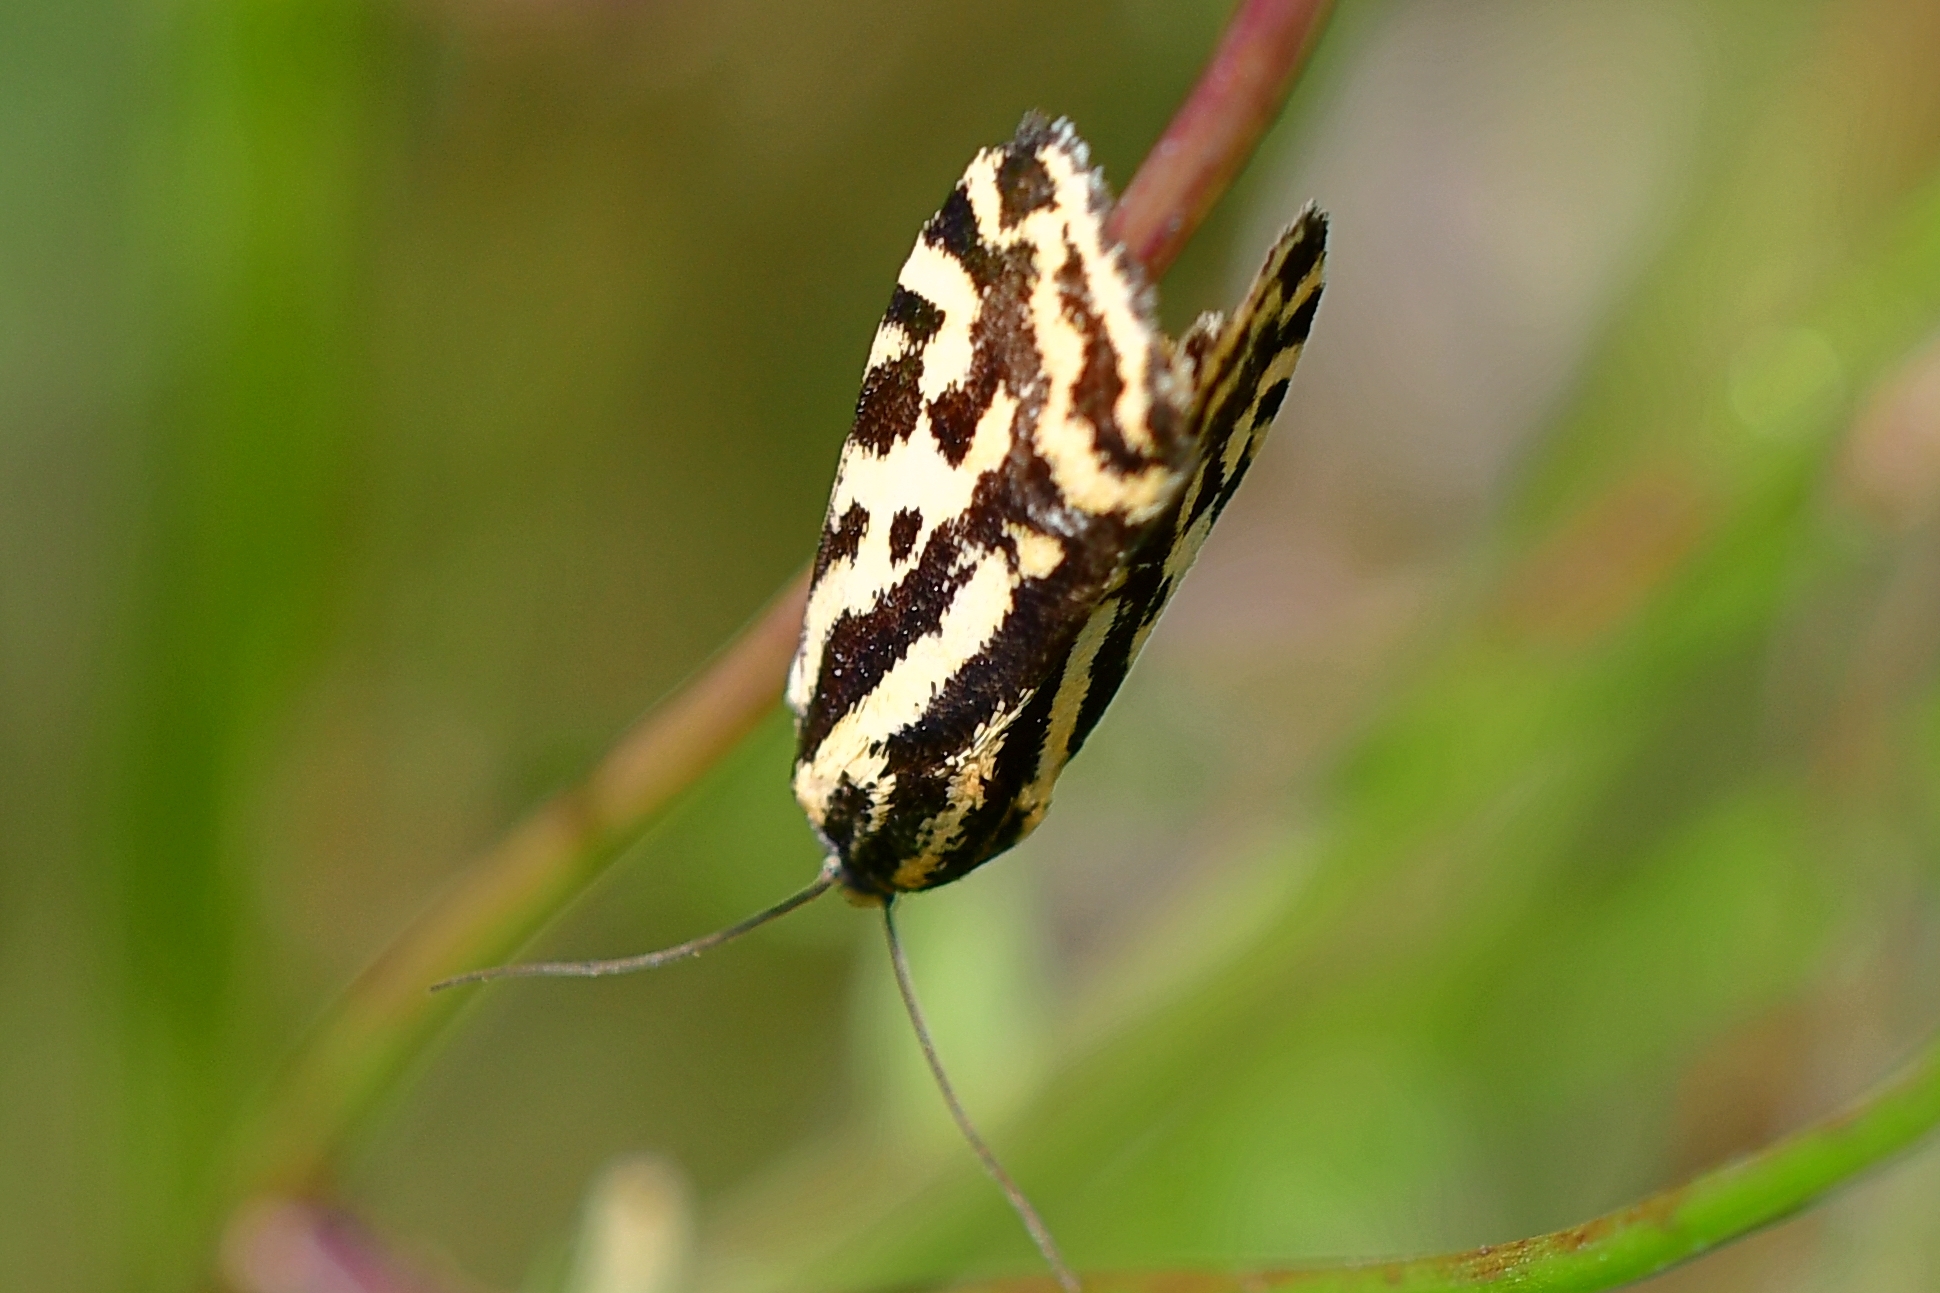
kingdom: Animalia
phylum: Arthropoda
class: Insecta
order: Lepidoptera
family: Noctuidae
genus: Acontia
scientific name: Acontia trabealis
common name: Spotted sulphur
